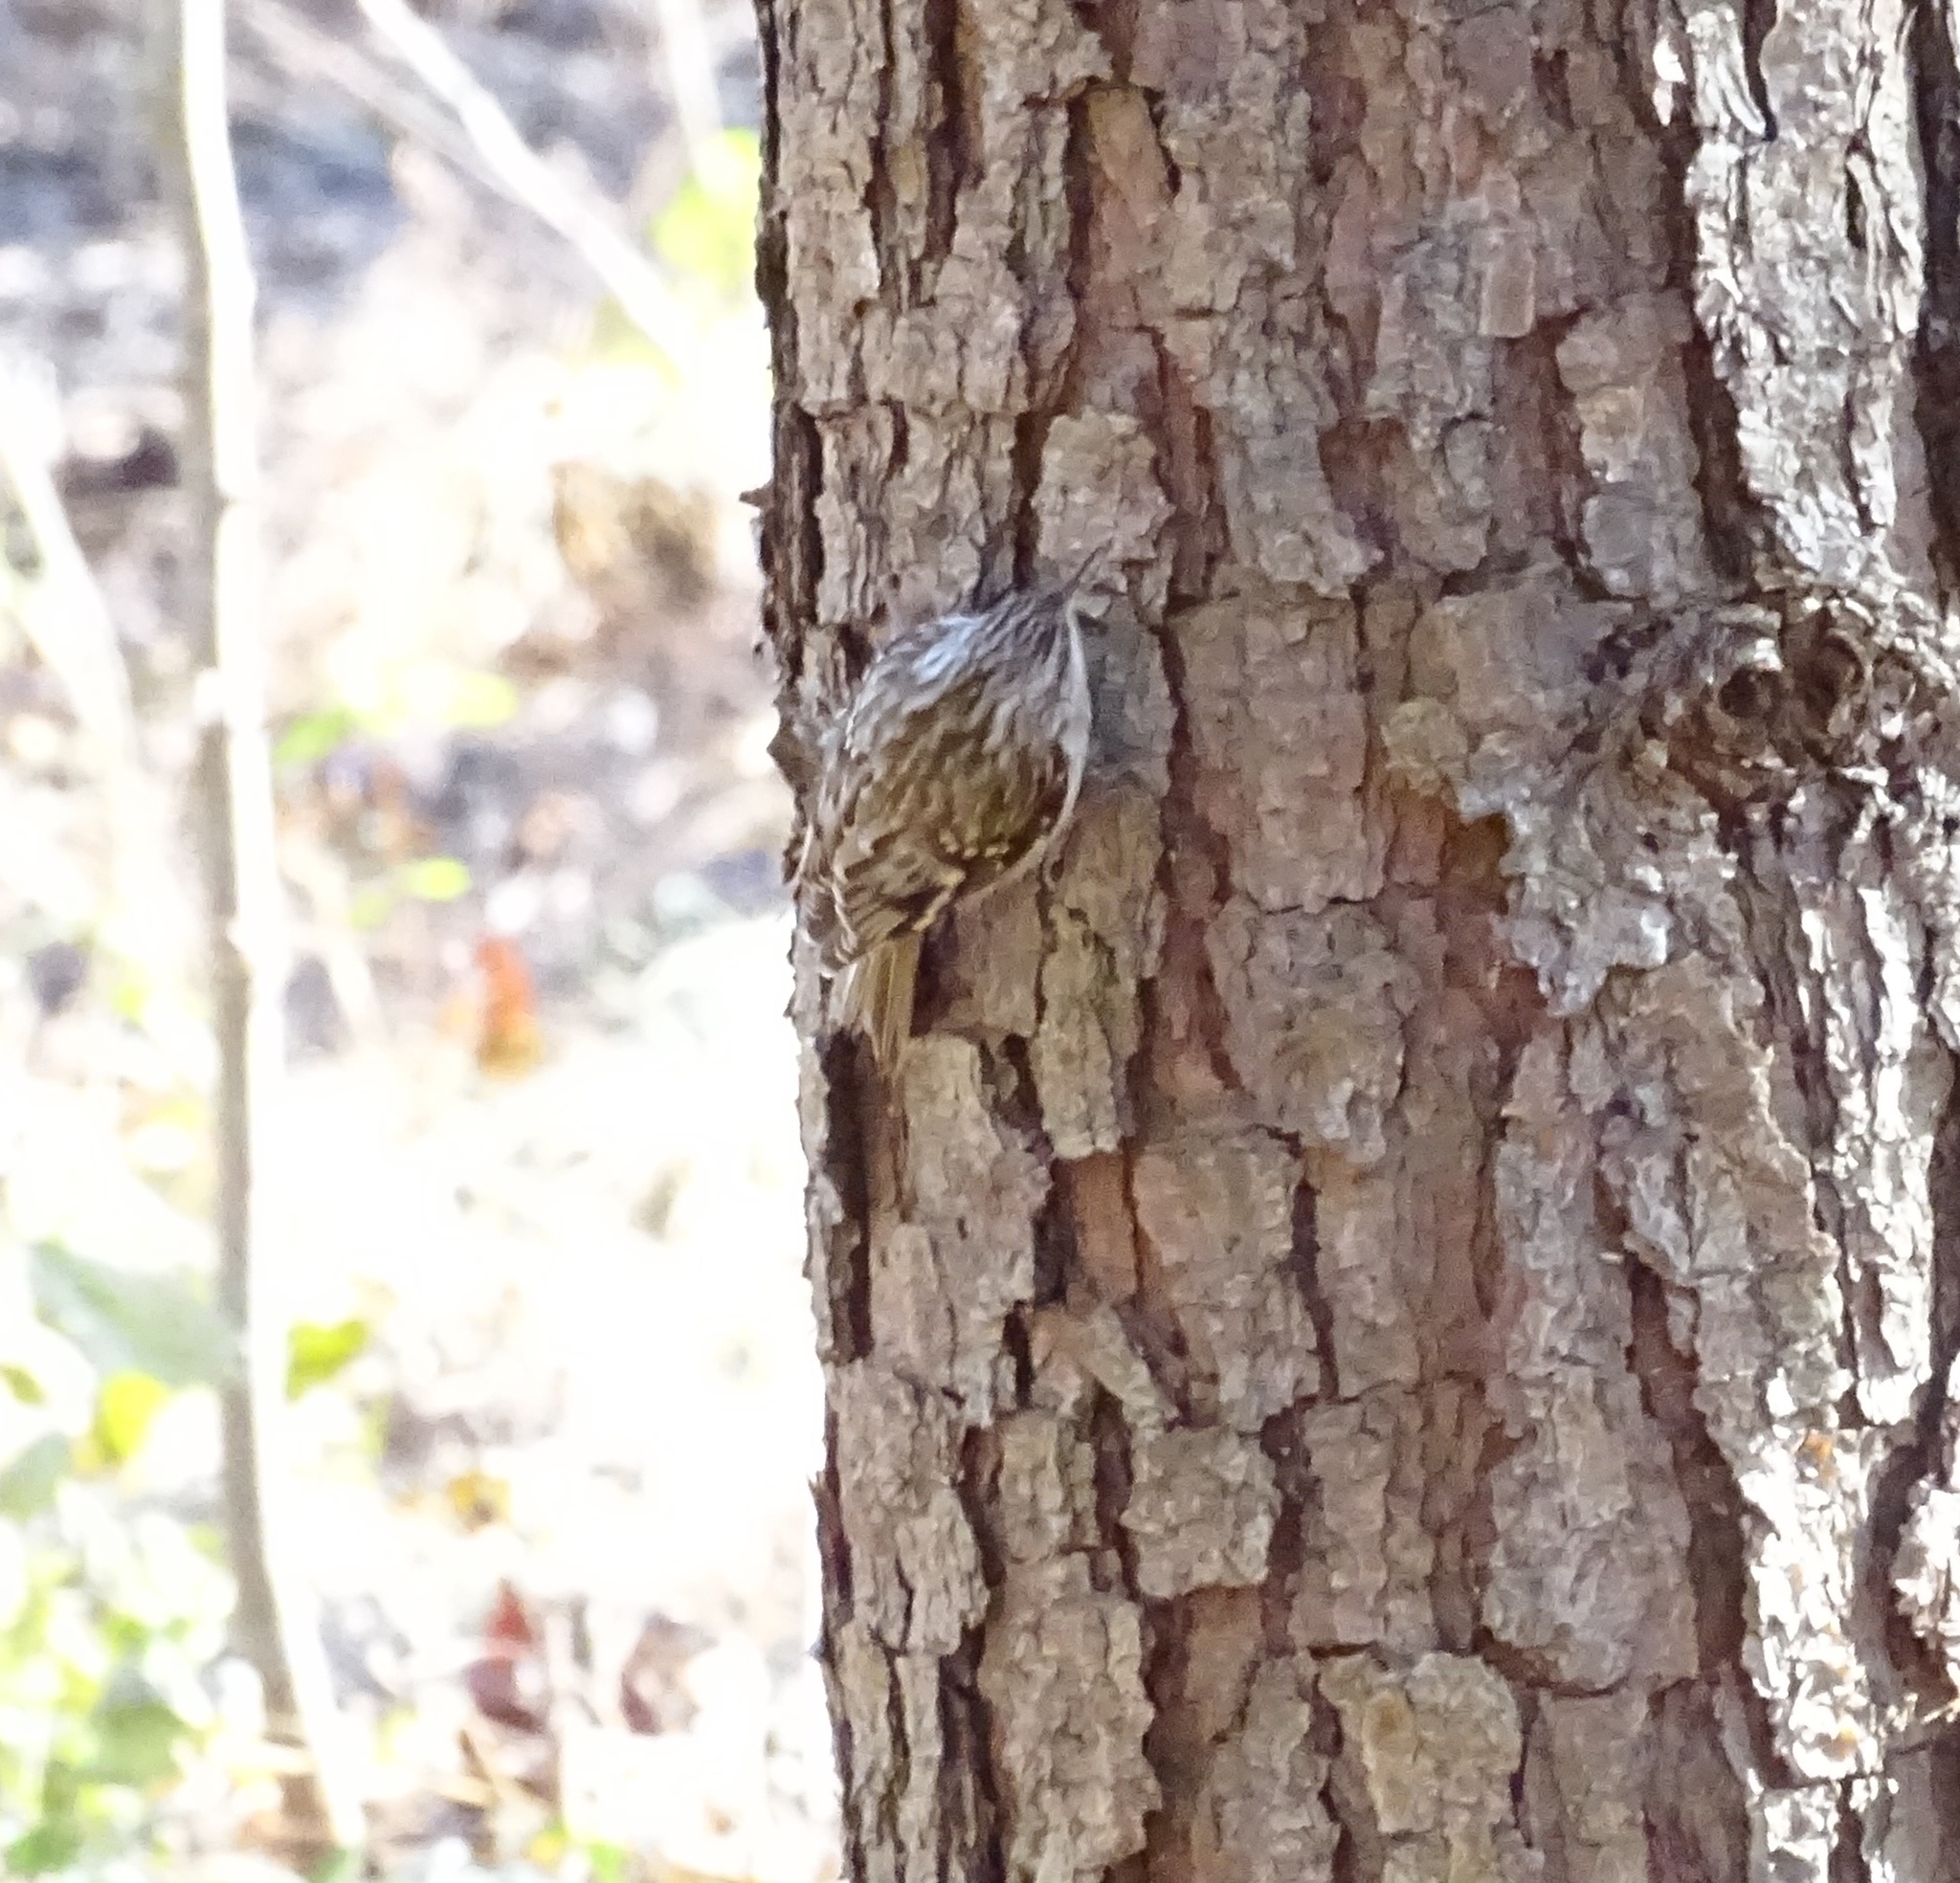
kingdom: Animalia
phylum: Chordata
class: Aves
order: Passeriformes
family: Certhiidae
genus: Certhia
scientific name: Certhia americana
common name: Brown creeper
